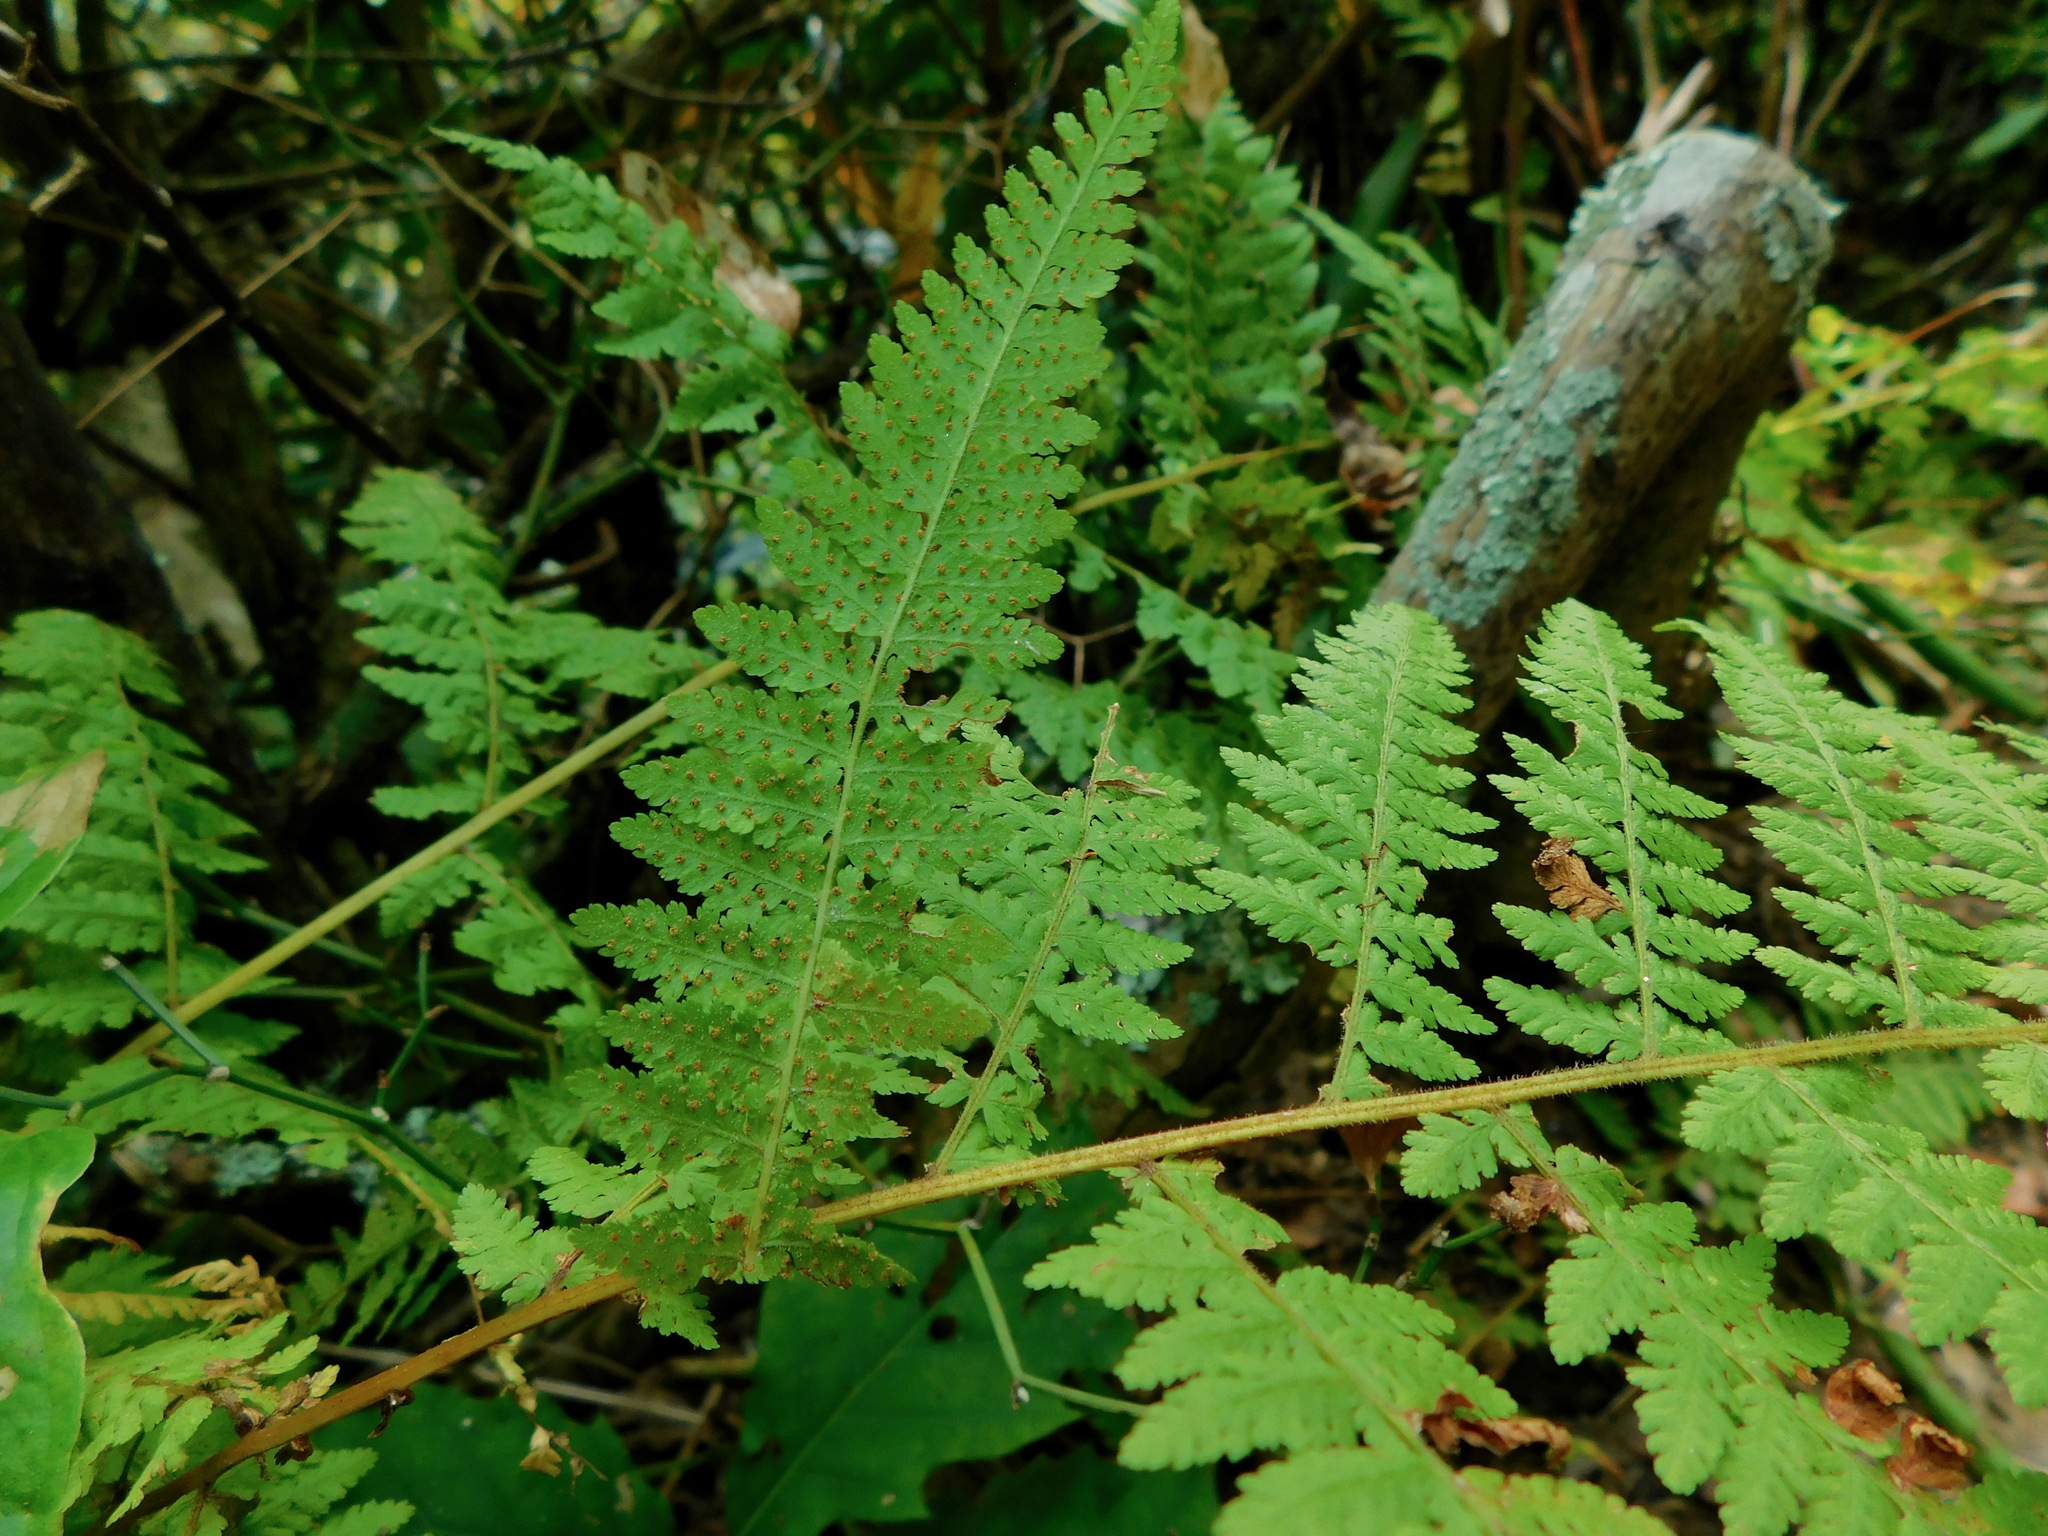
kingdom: Plantae
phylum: Tracheophyta
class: Polypodiopsida
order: Polypodiales
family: Dennstaedtiaceae
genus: Sitobolium
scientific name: Sitobolium punctilobum
